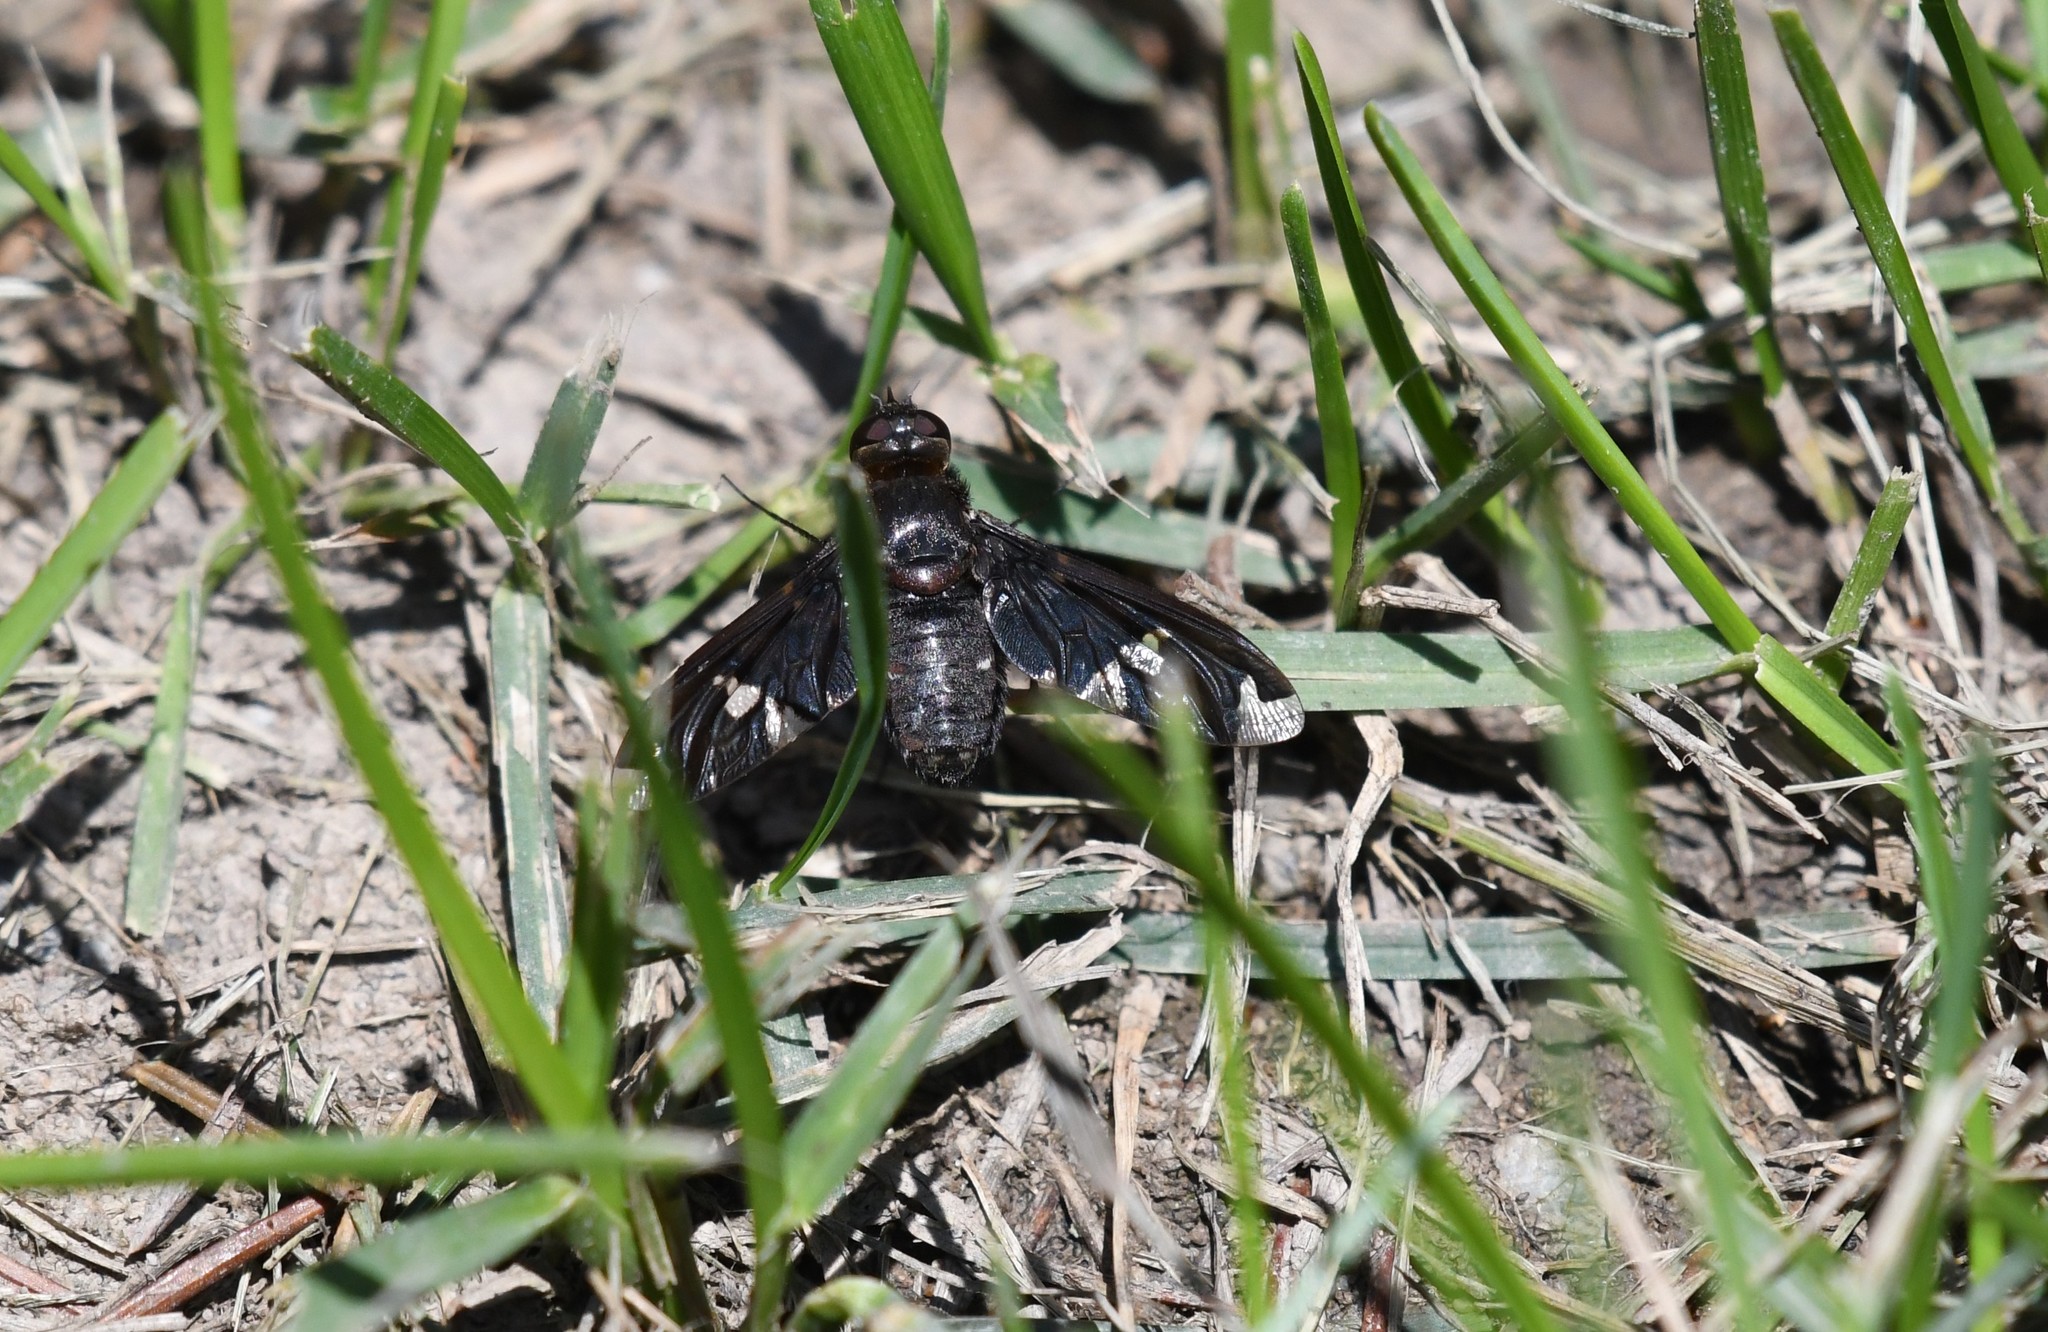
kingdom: Animalia
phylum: Arthropoda
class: Insecta
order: Diptera
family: Bombyliidae
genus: Exoprosopa
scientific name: Exoprosopa decora
